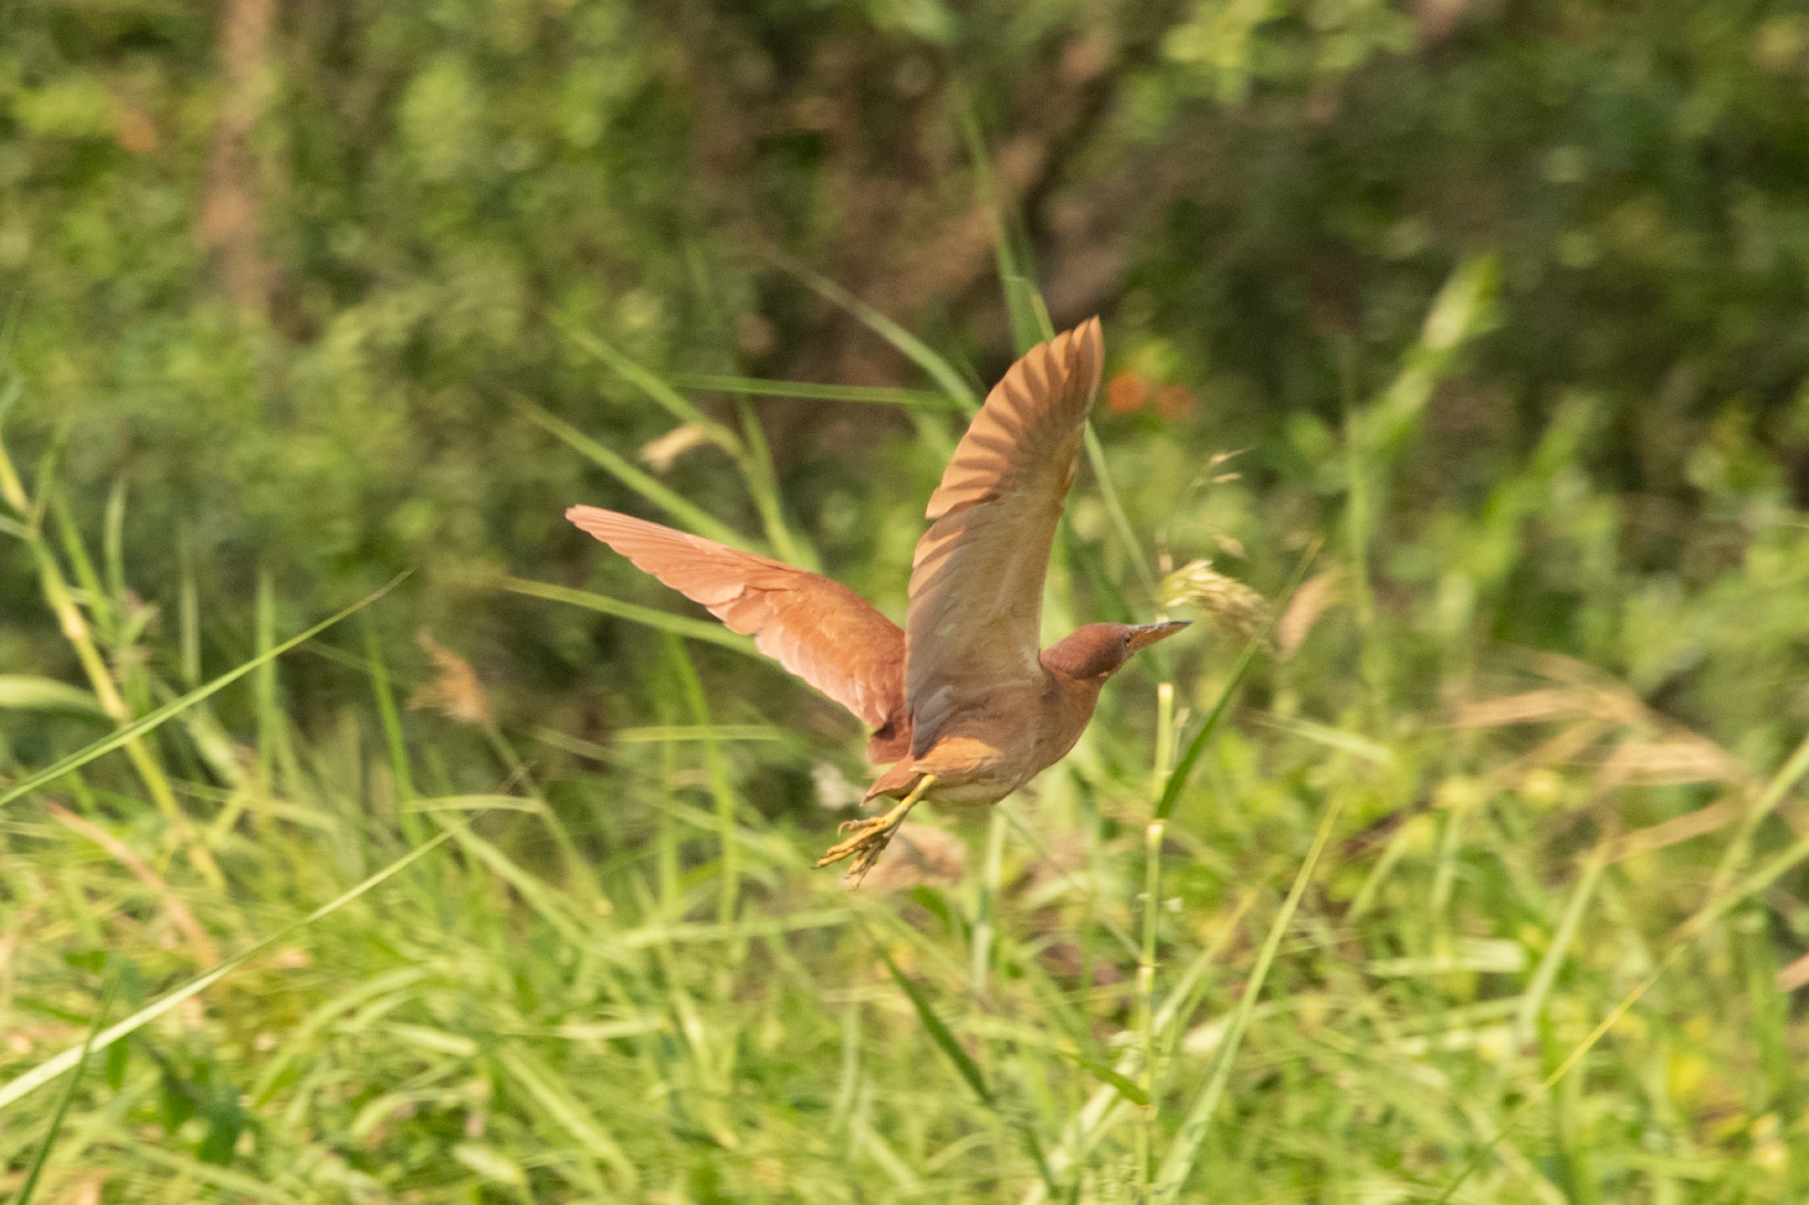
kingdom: Animalia
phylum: Chordata
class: Aves
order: Pelecaniformes
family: Ardeidae
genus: Ixobrychus
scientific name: Ixobrychus cinnamomeus
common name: Cinnamon bittern
